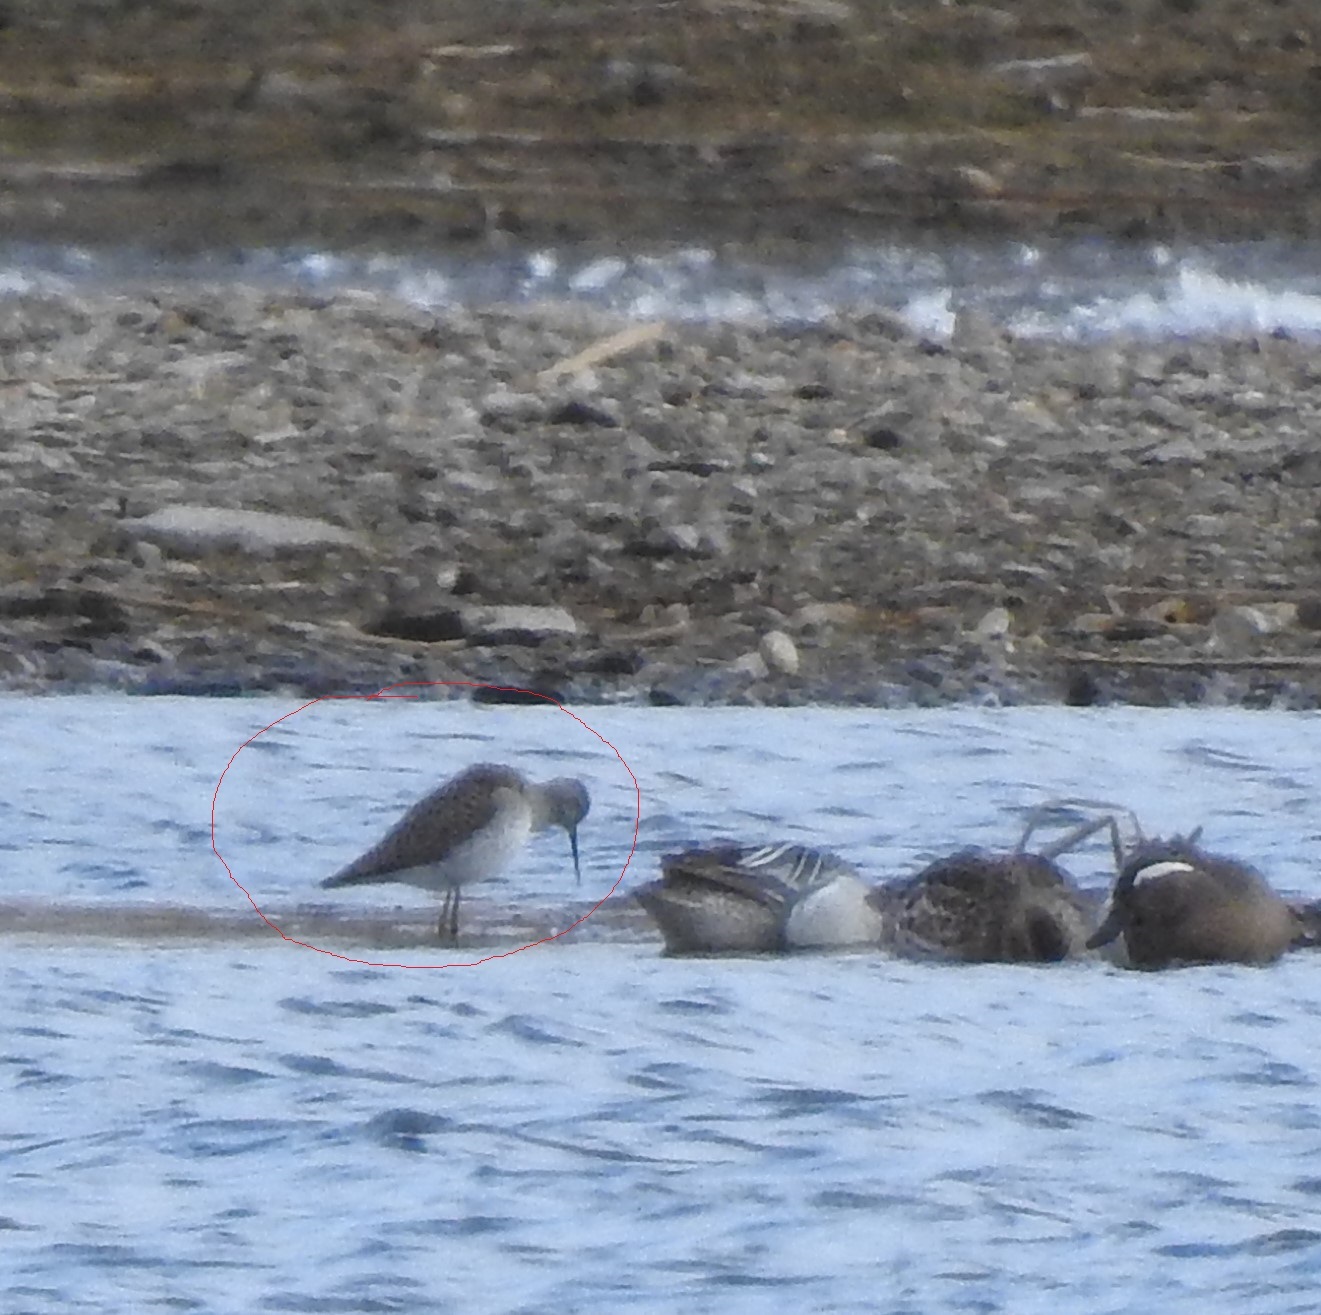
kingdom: Animalia
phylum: Chordata
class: Aves
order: Charadriiformes
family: Scolopacidae
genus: Tringa
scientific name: Tringa stagnatilis
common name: Marsh sandpiper
